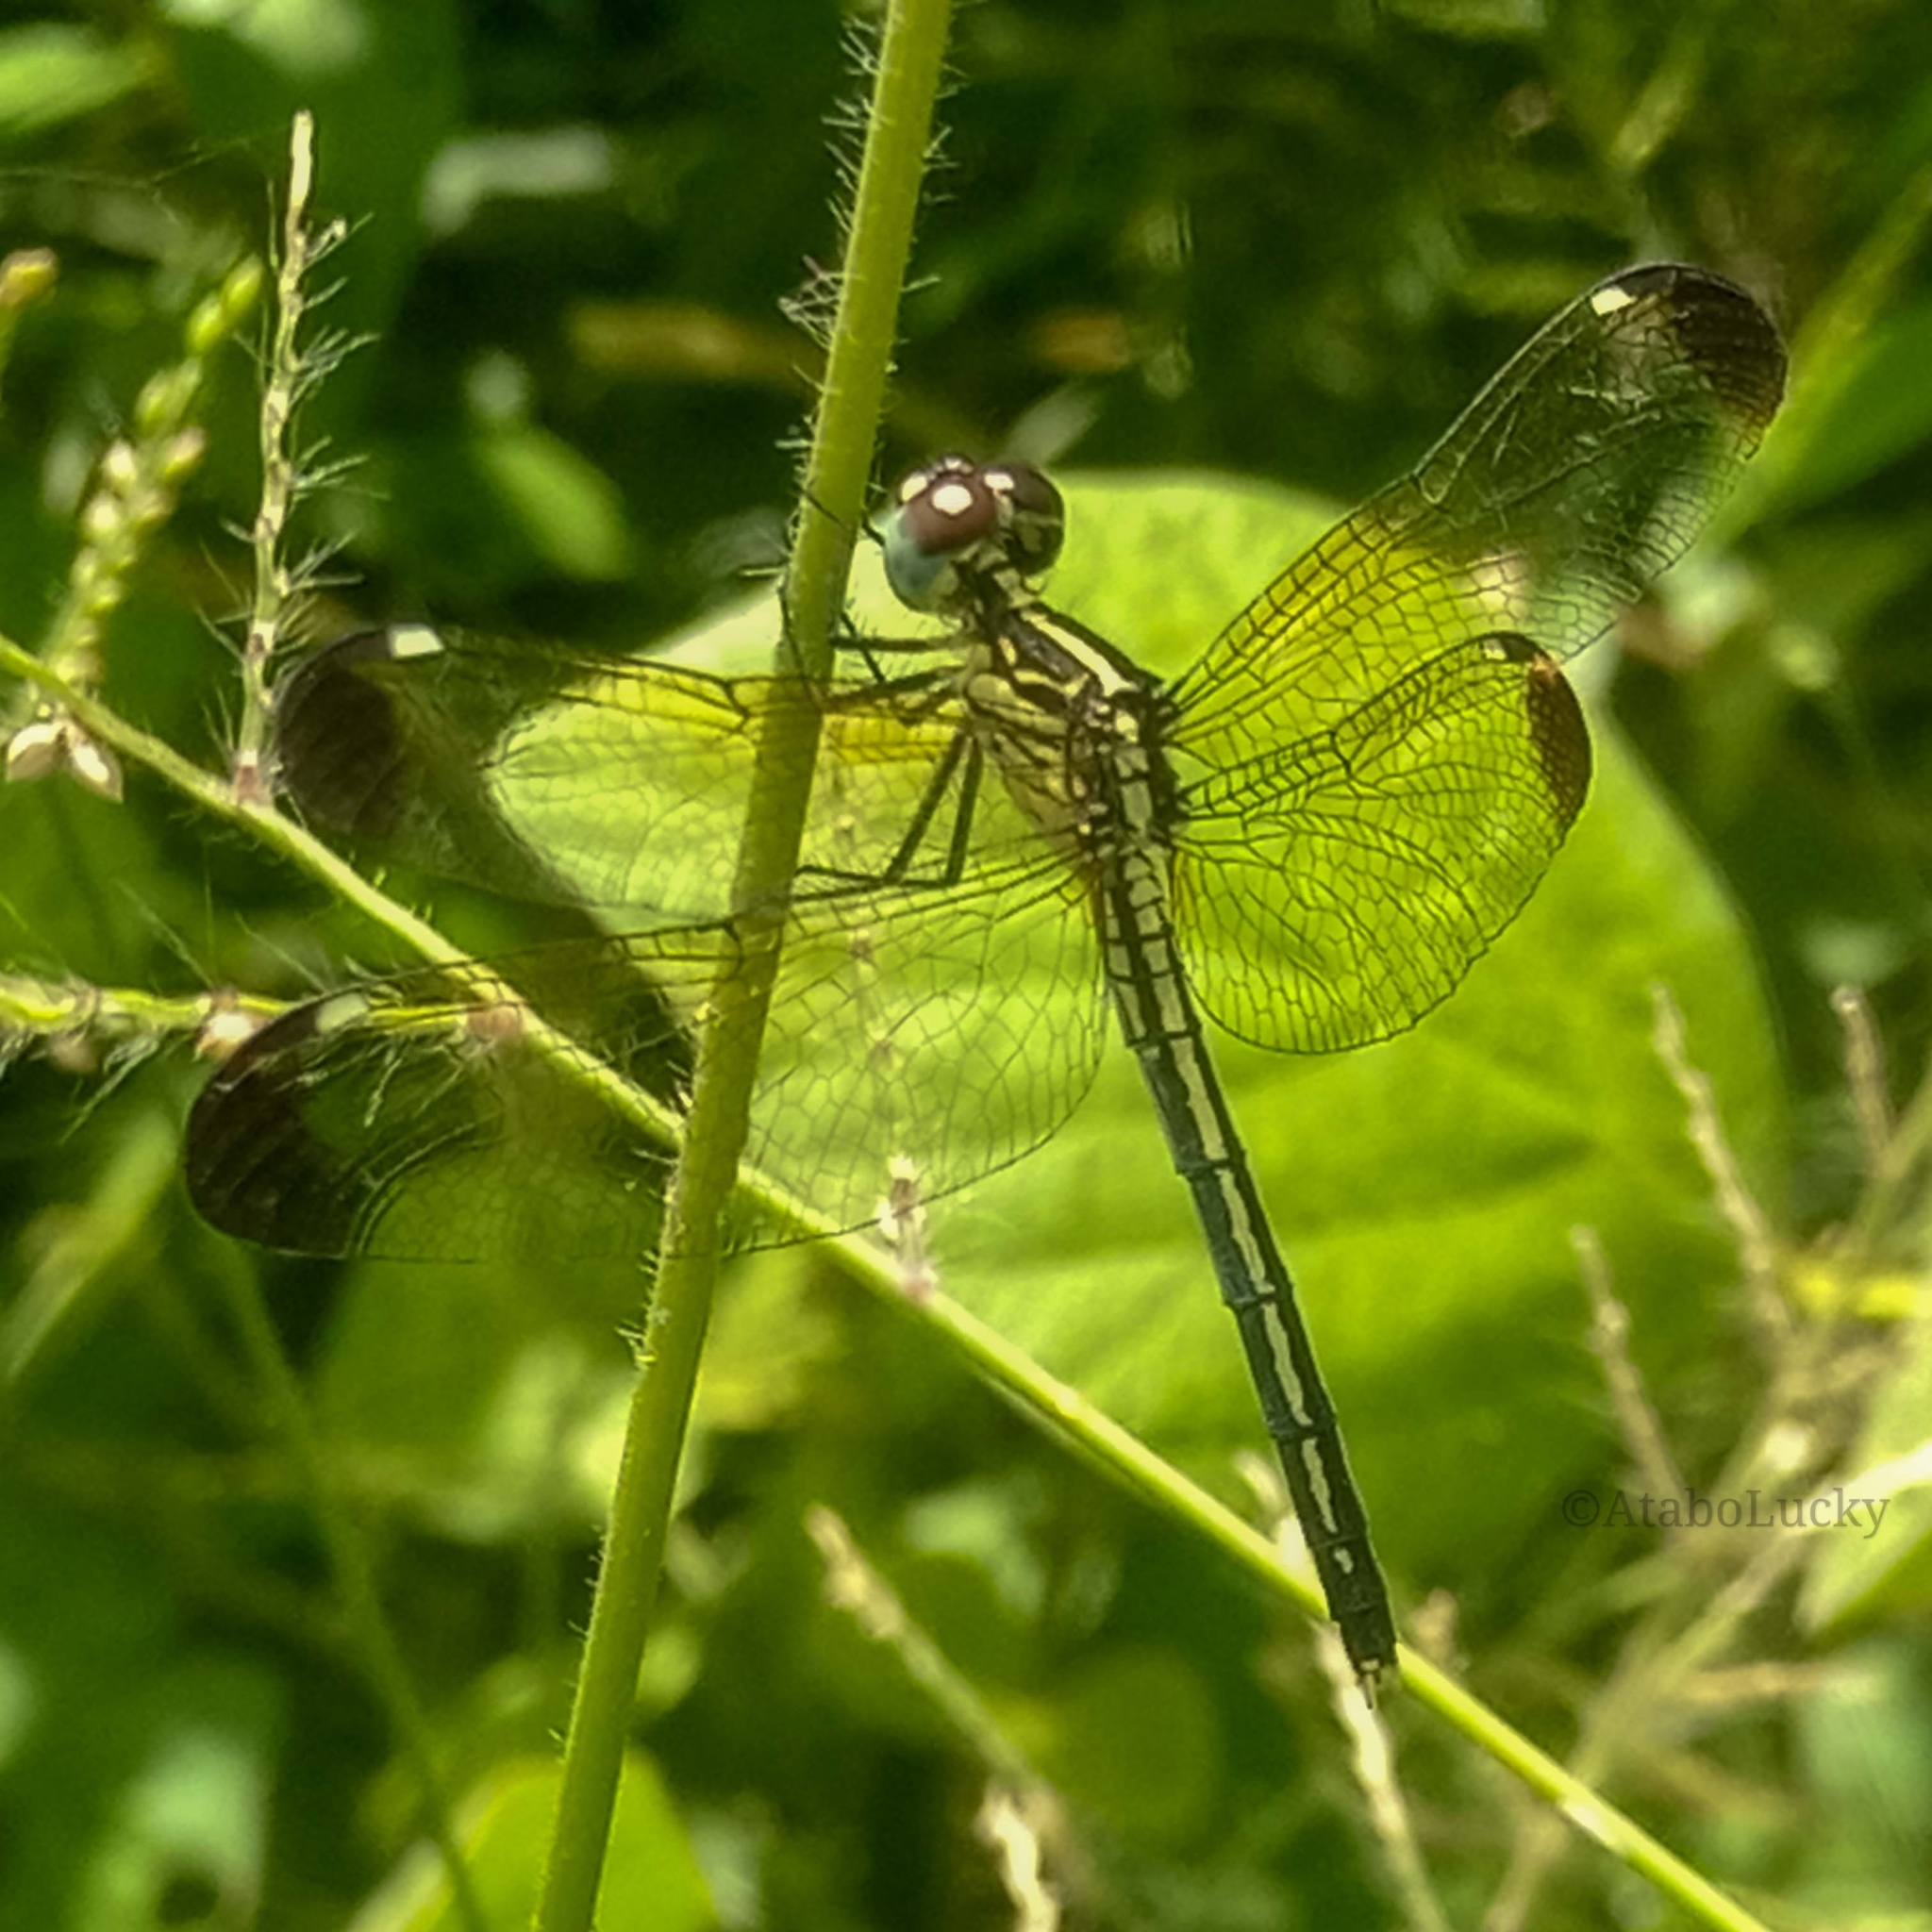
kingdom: Animalia
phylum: Arthropoda
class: Insecta
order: Odonata
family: Libellulidae
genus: Hemistigma
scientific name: Hemistigma albipunctum
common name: African pied-spot
